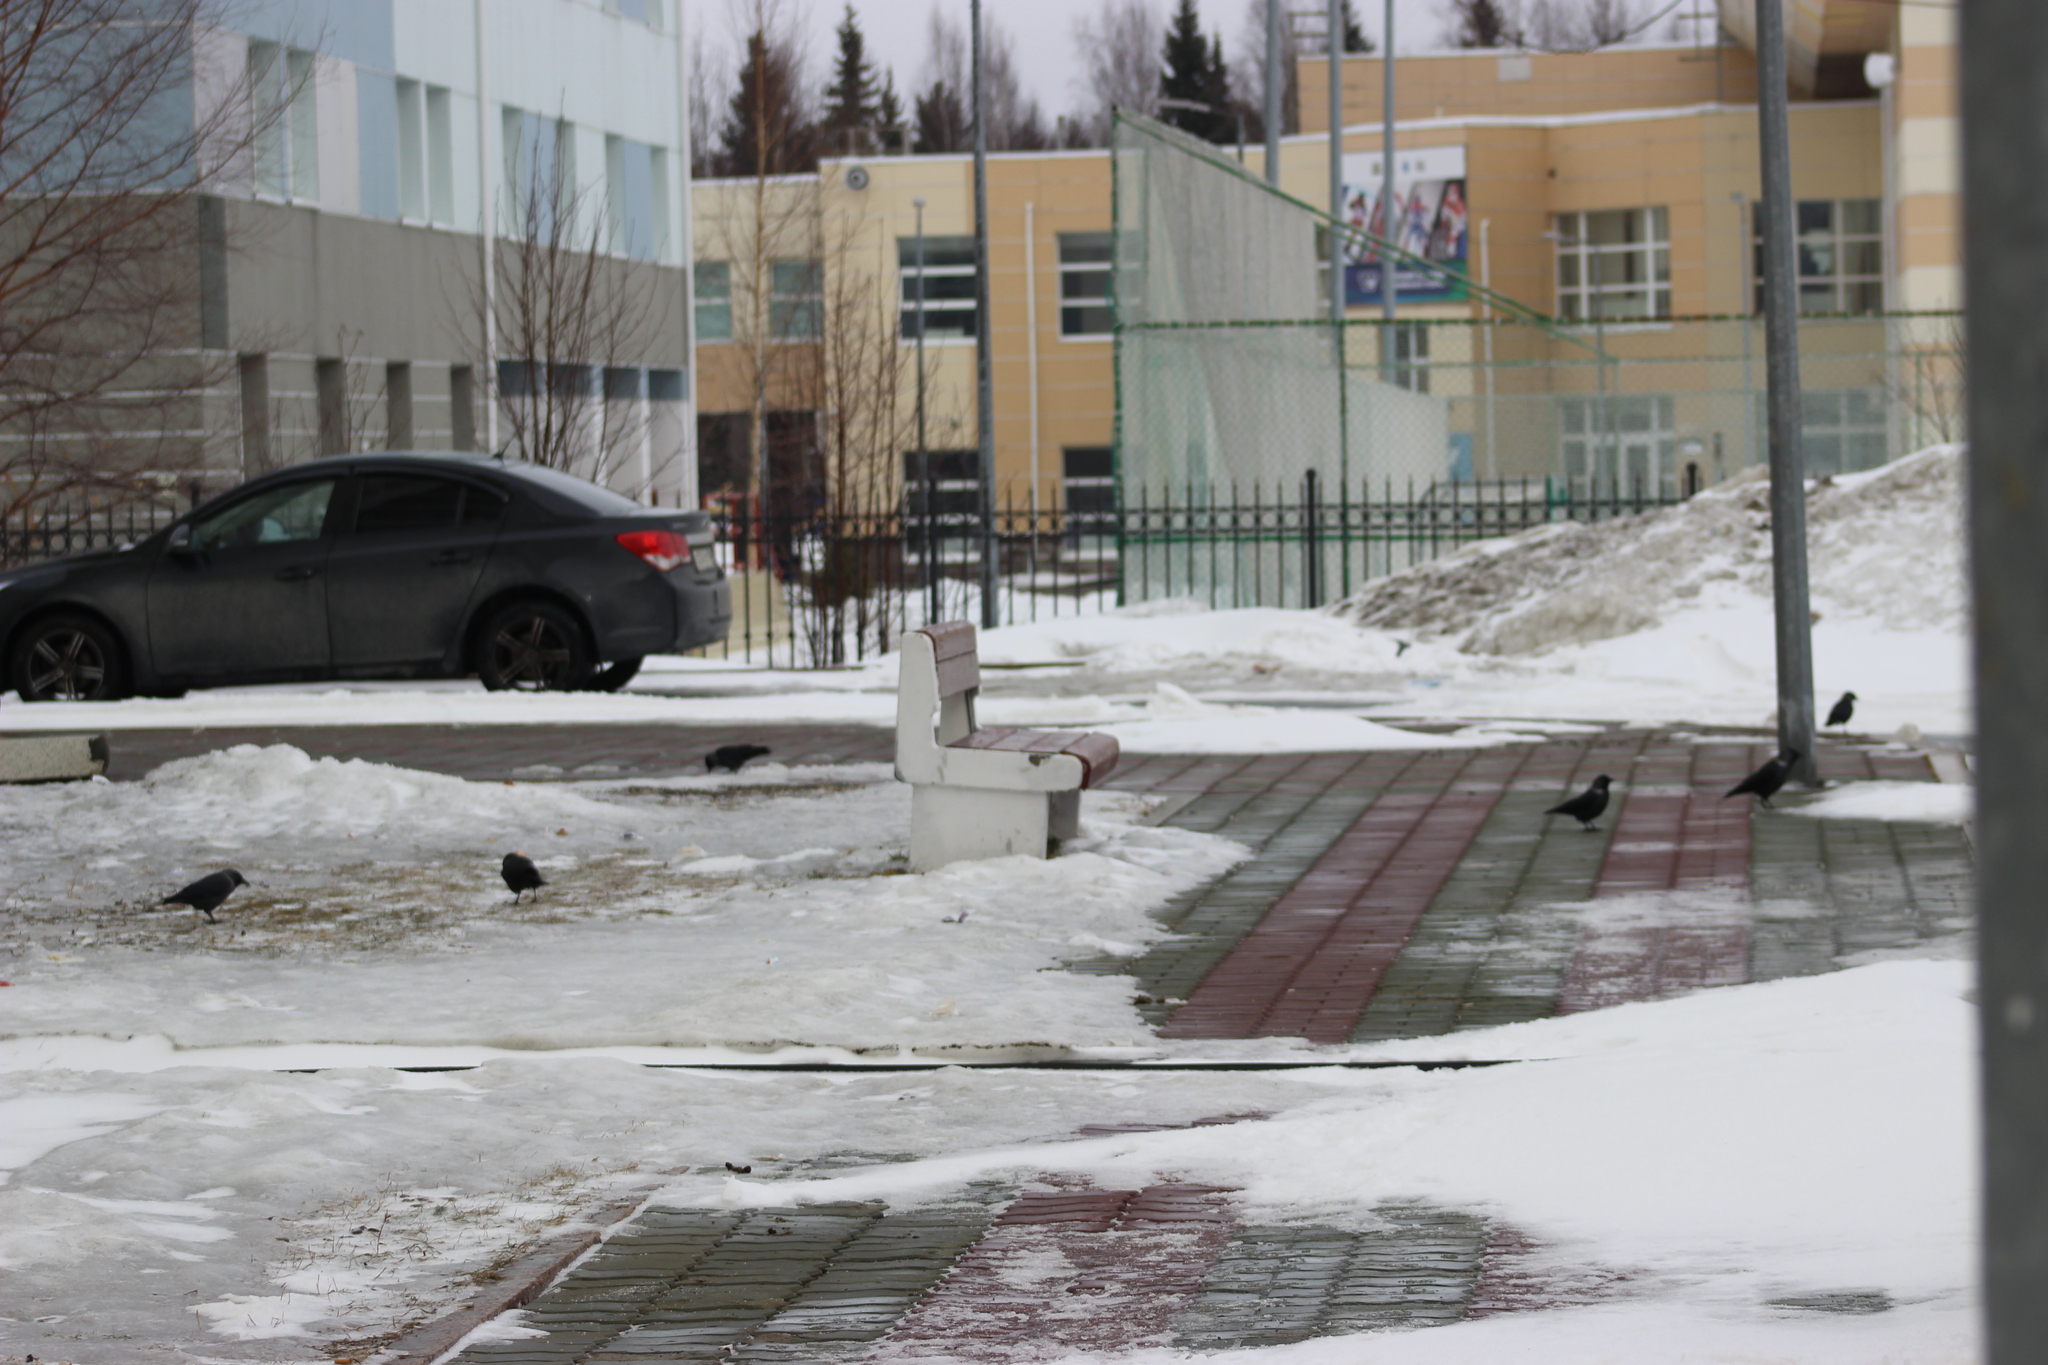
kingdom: Animalia
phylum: Chordata
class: Aves
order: Passeriformes
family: Corvidae
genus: Coloeus
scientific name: Coloeus monedula
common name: Western jackdaw
